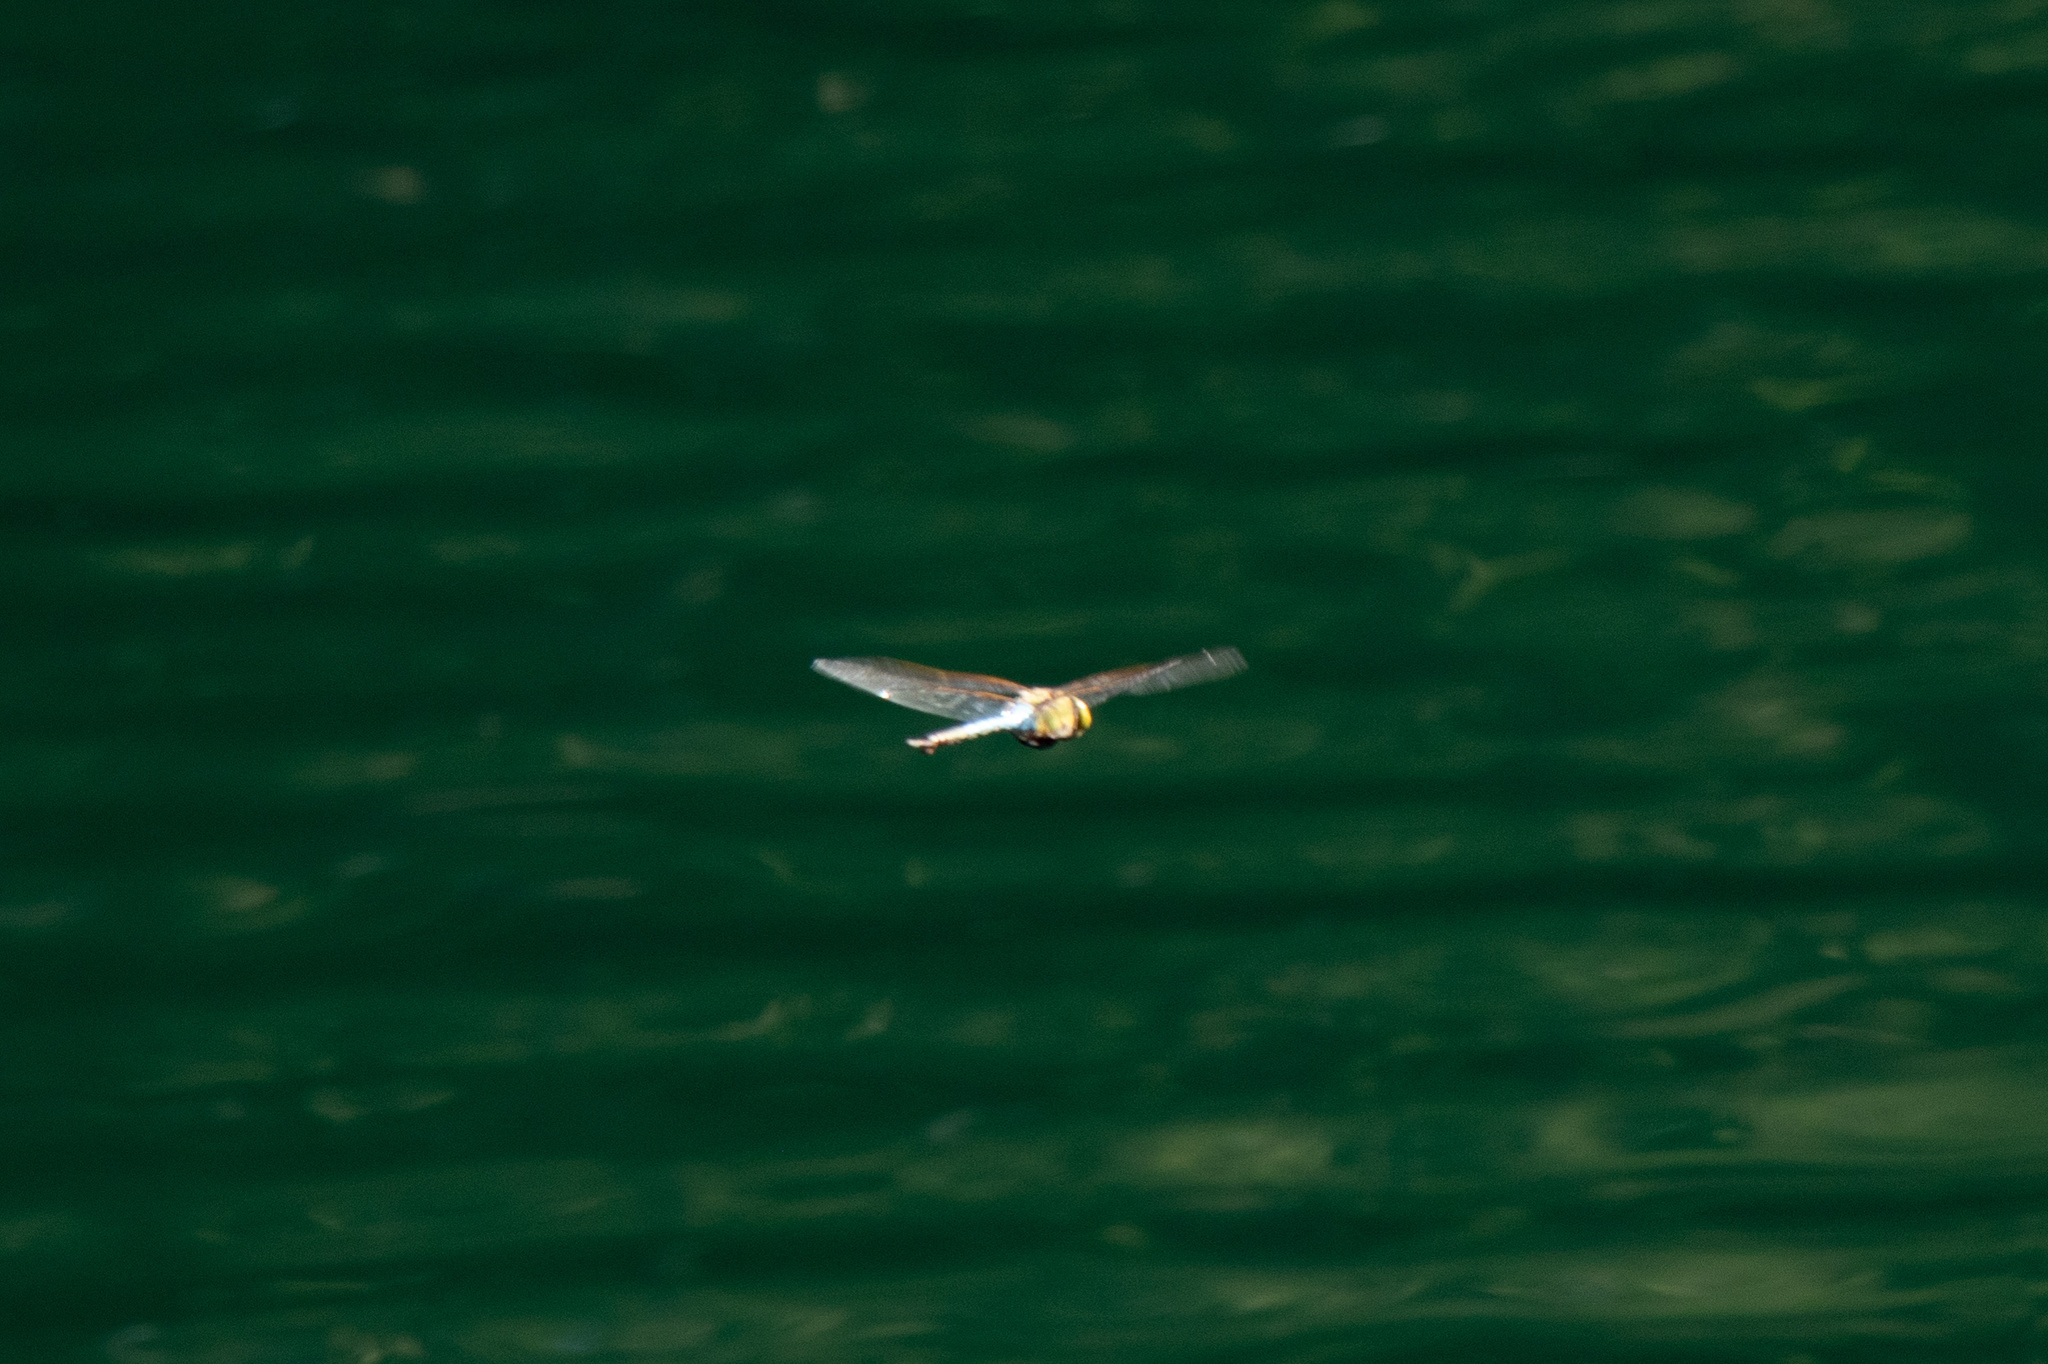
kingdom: Animalia
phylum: Arthropoda
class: Insecta
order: Odonata
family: Aeshnidae
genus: Anax
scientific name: Anax junius
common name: Common green darner
